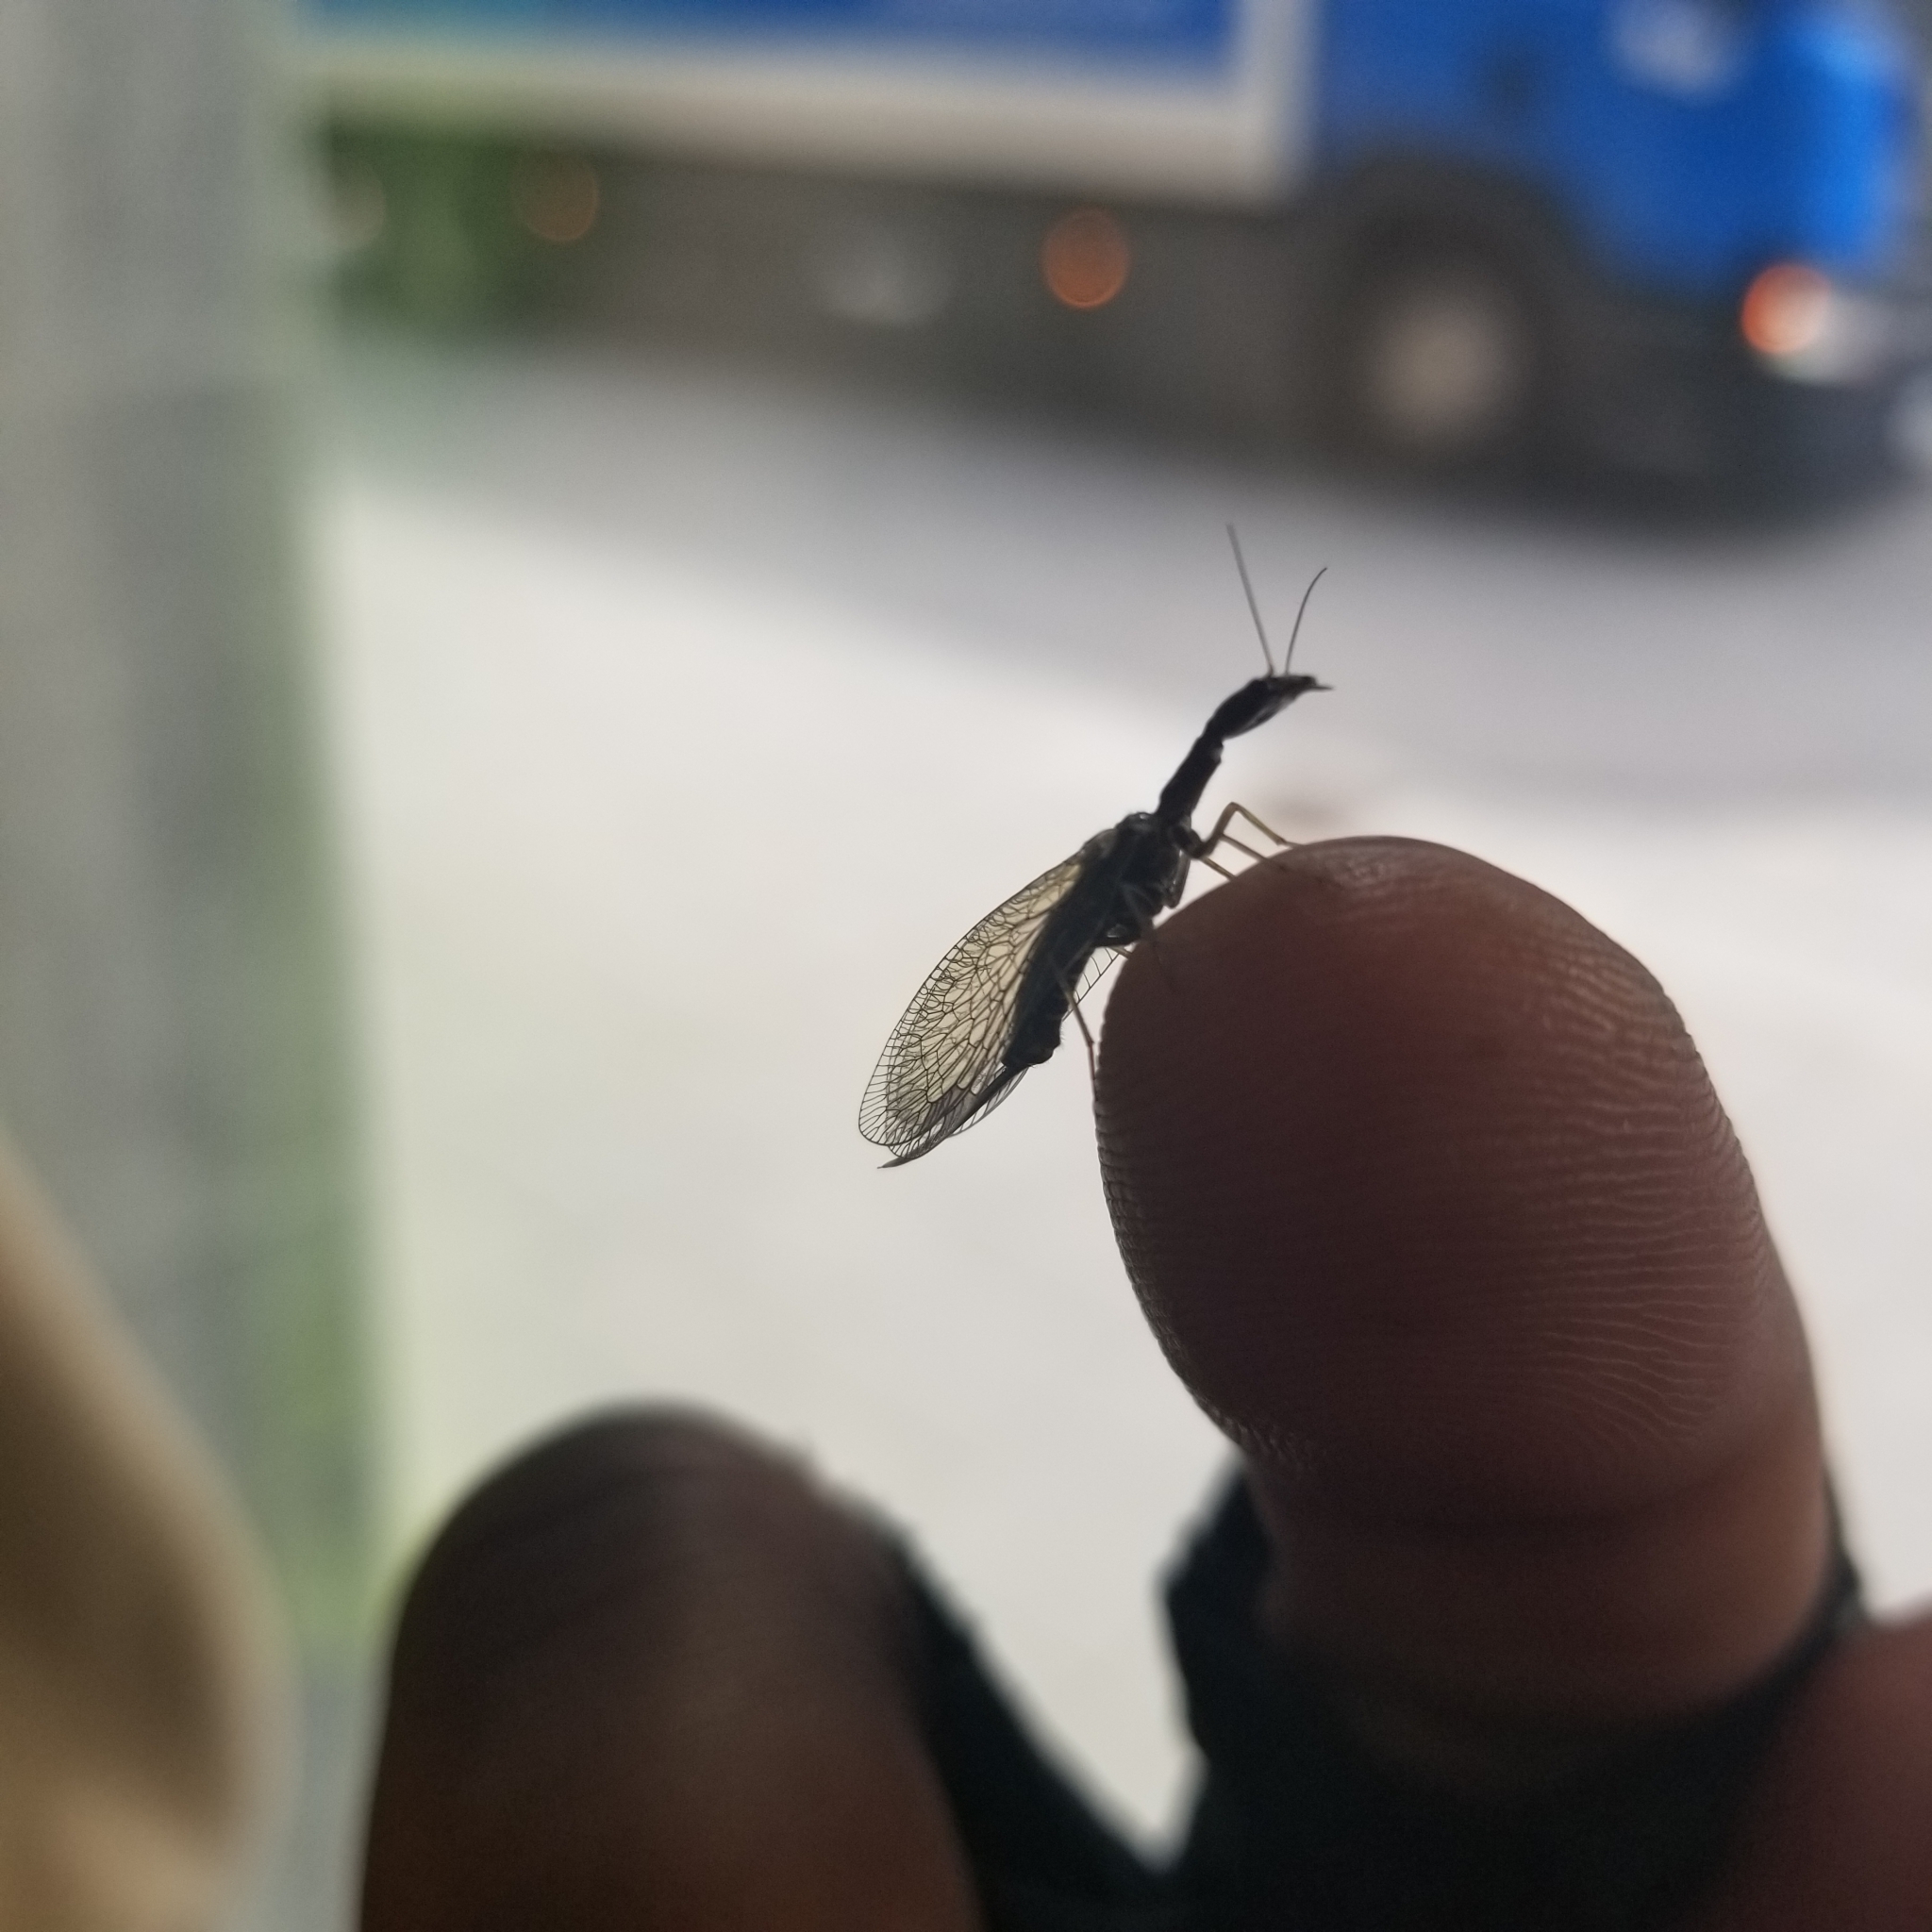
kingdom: Animalia
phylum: Arthropoda
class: Insecta
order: Raphidioptera
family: Raphidiidae
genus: Phaeostigma
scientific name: Phaeostigma notatum
